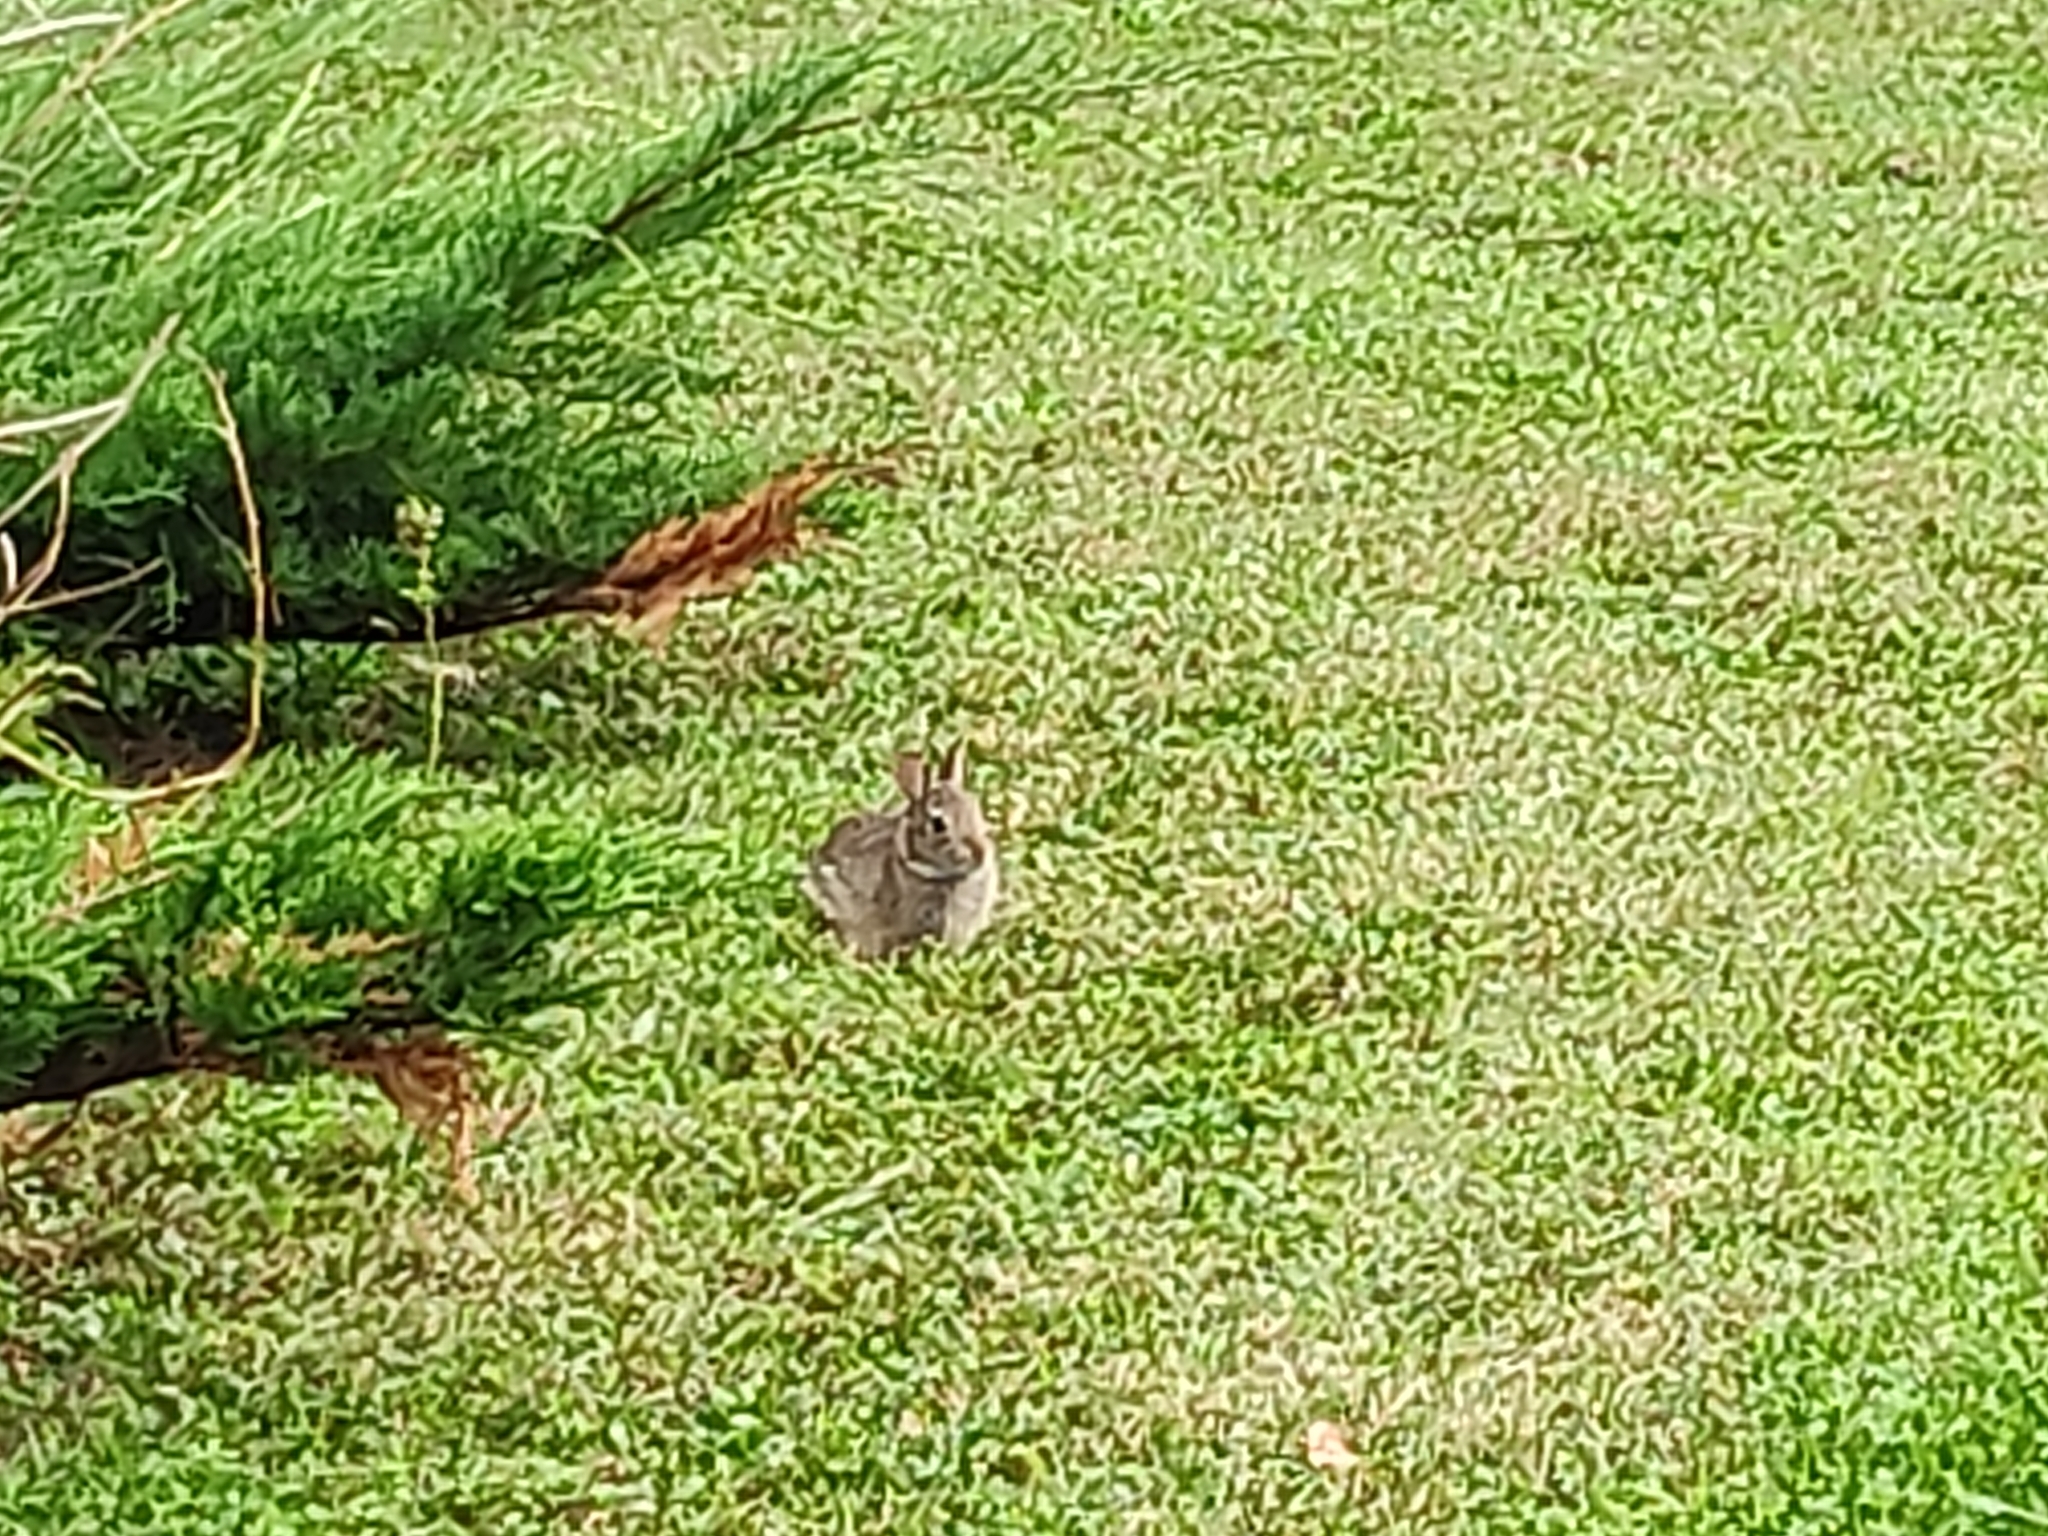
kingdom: Animalia
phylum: Chordata
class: Mammalia
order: Lagomorpha
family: Leporidae
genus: Sylvilagus
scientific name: Sylvilagus floridanus
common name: Eastern cottontail
